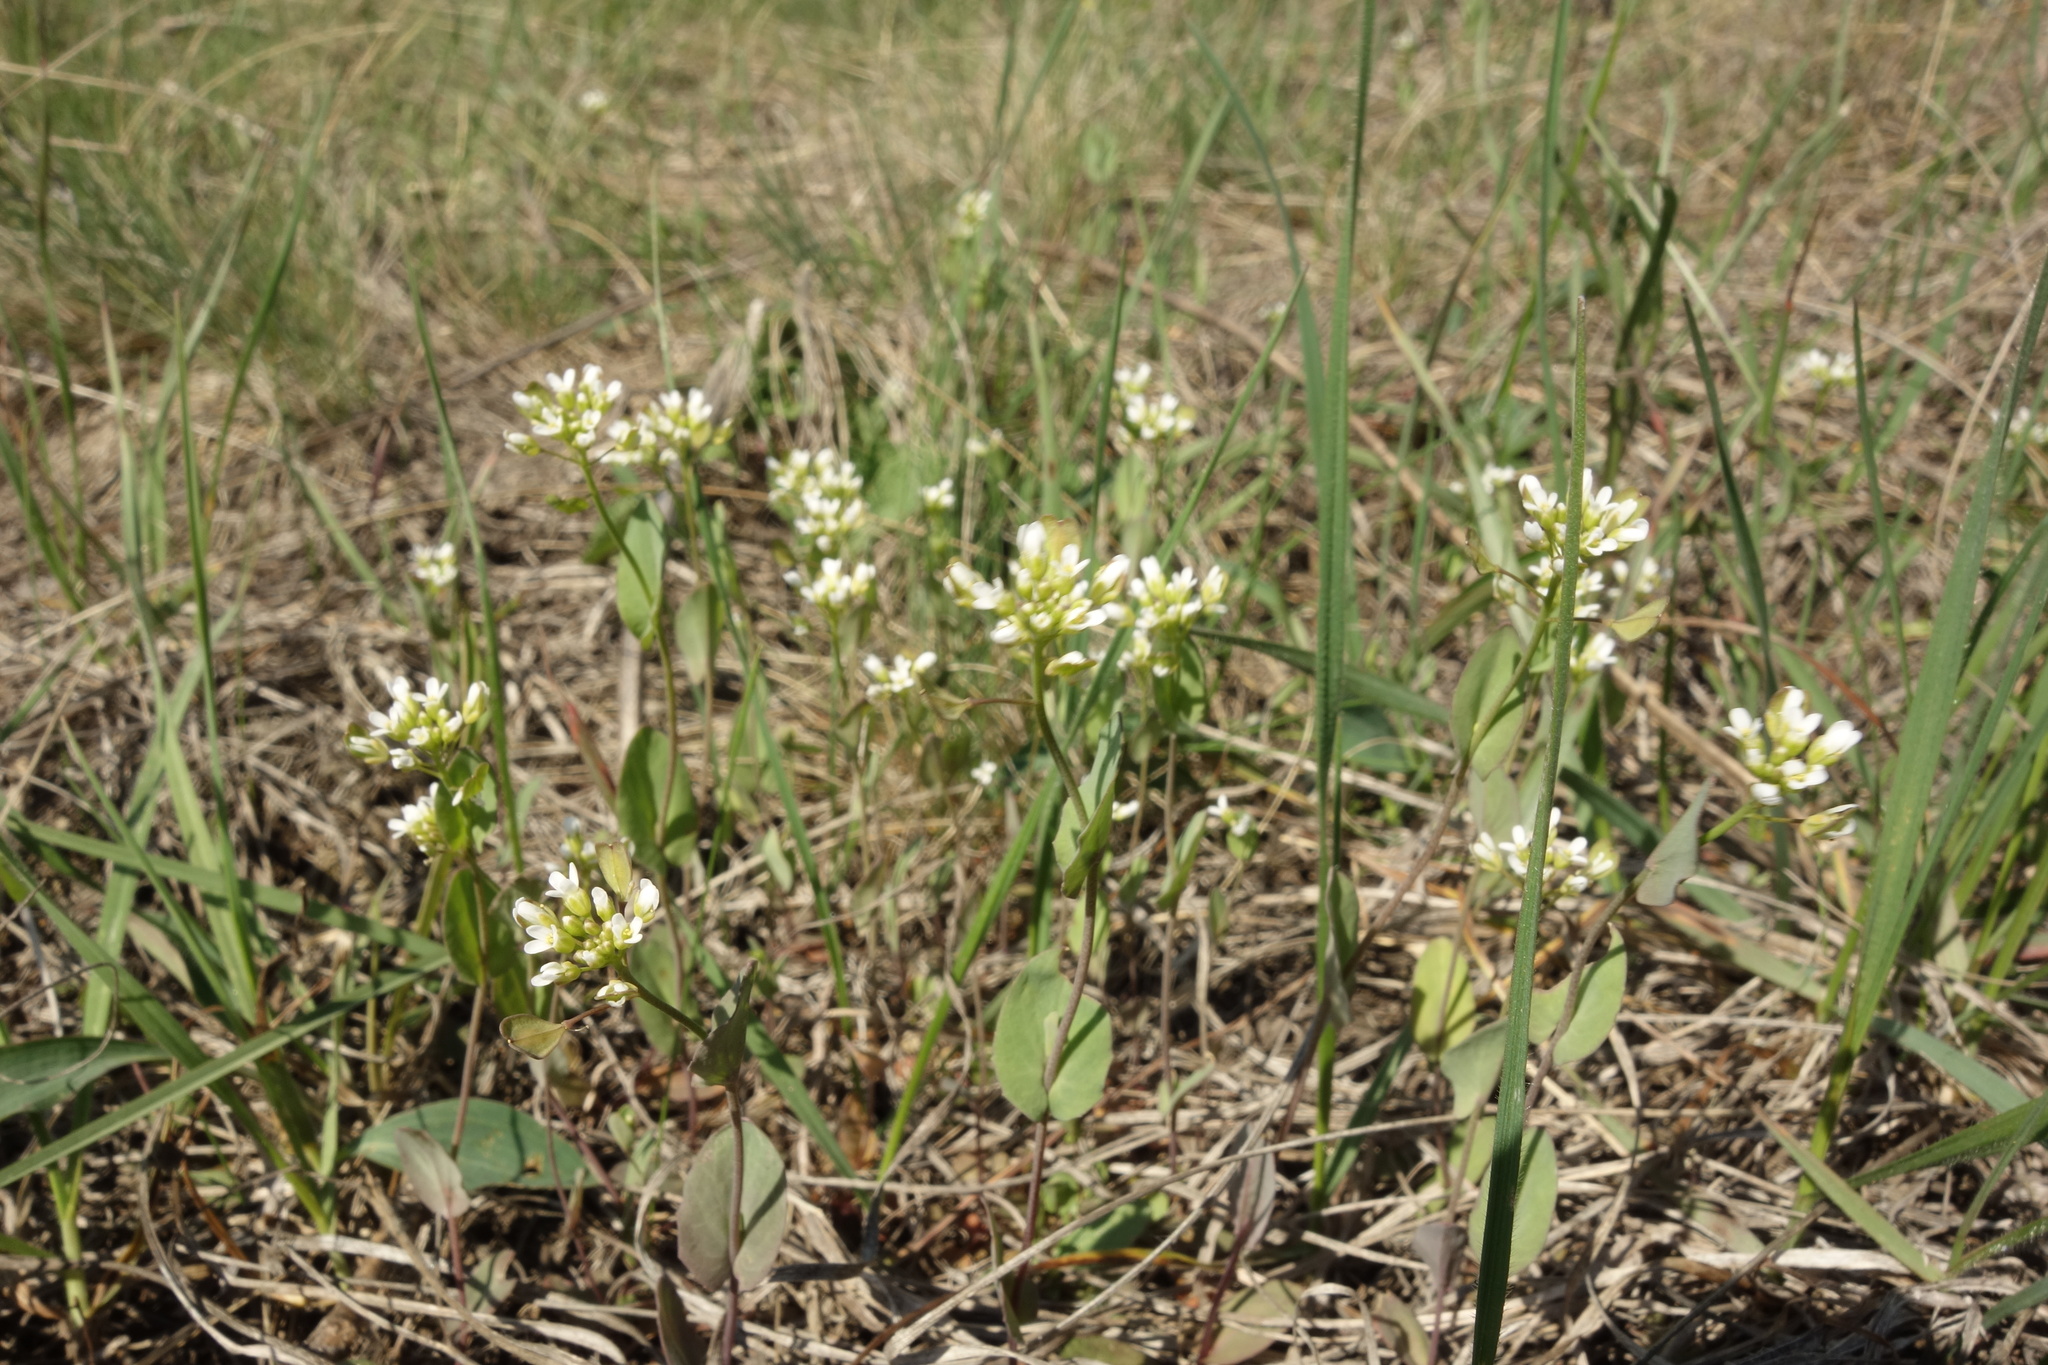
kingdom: Plantae
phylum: Tracheophyta
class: Magnoliopsida
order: Brassicales
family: Brassicaceae
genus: Noccaea
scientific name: Noccaea perfoliata
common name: Perfoliate pennycress
